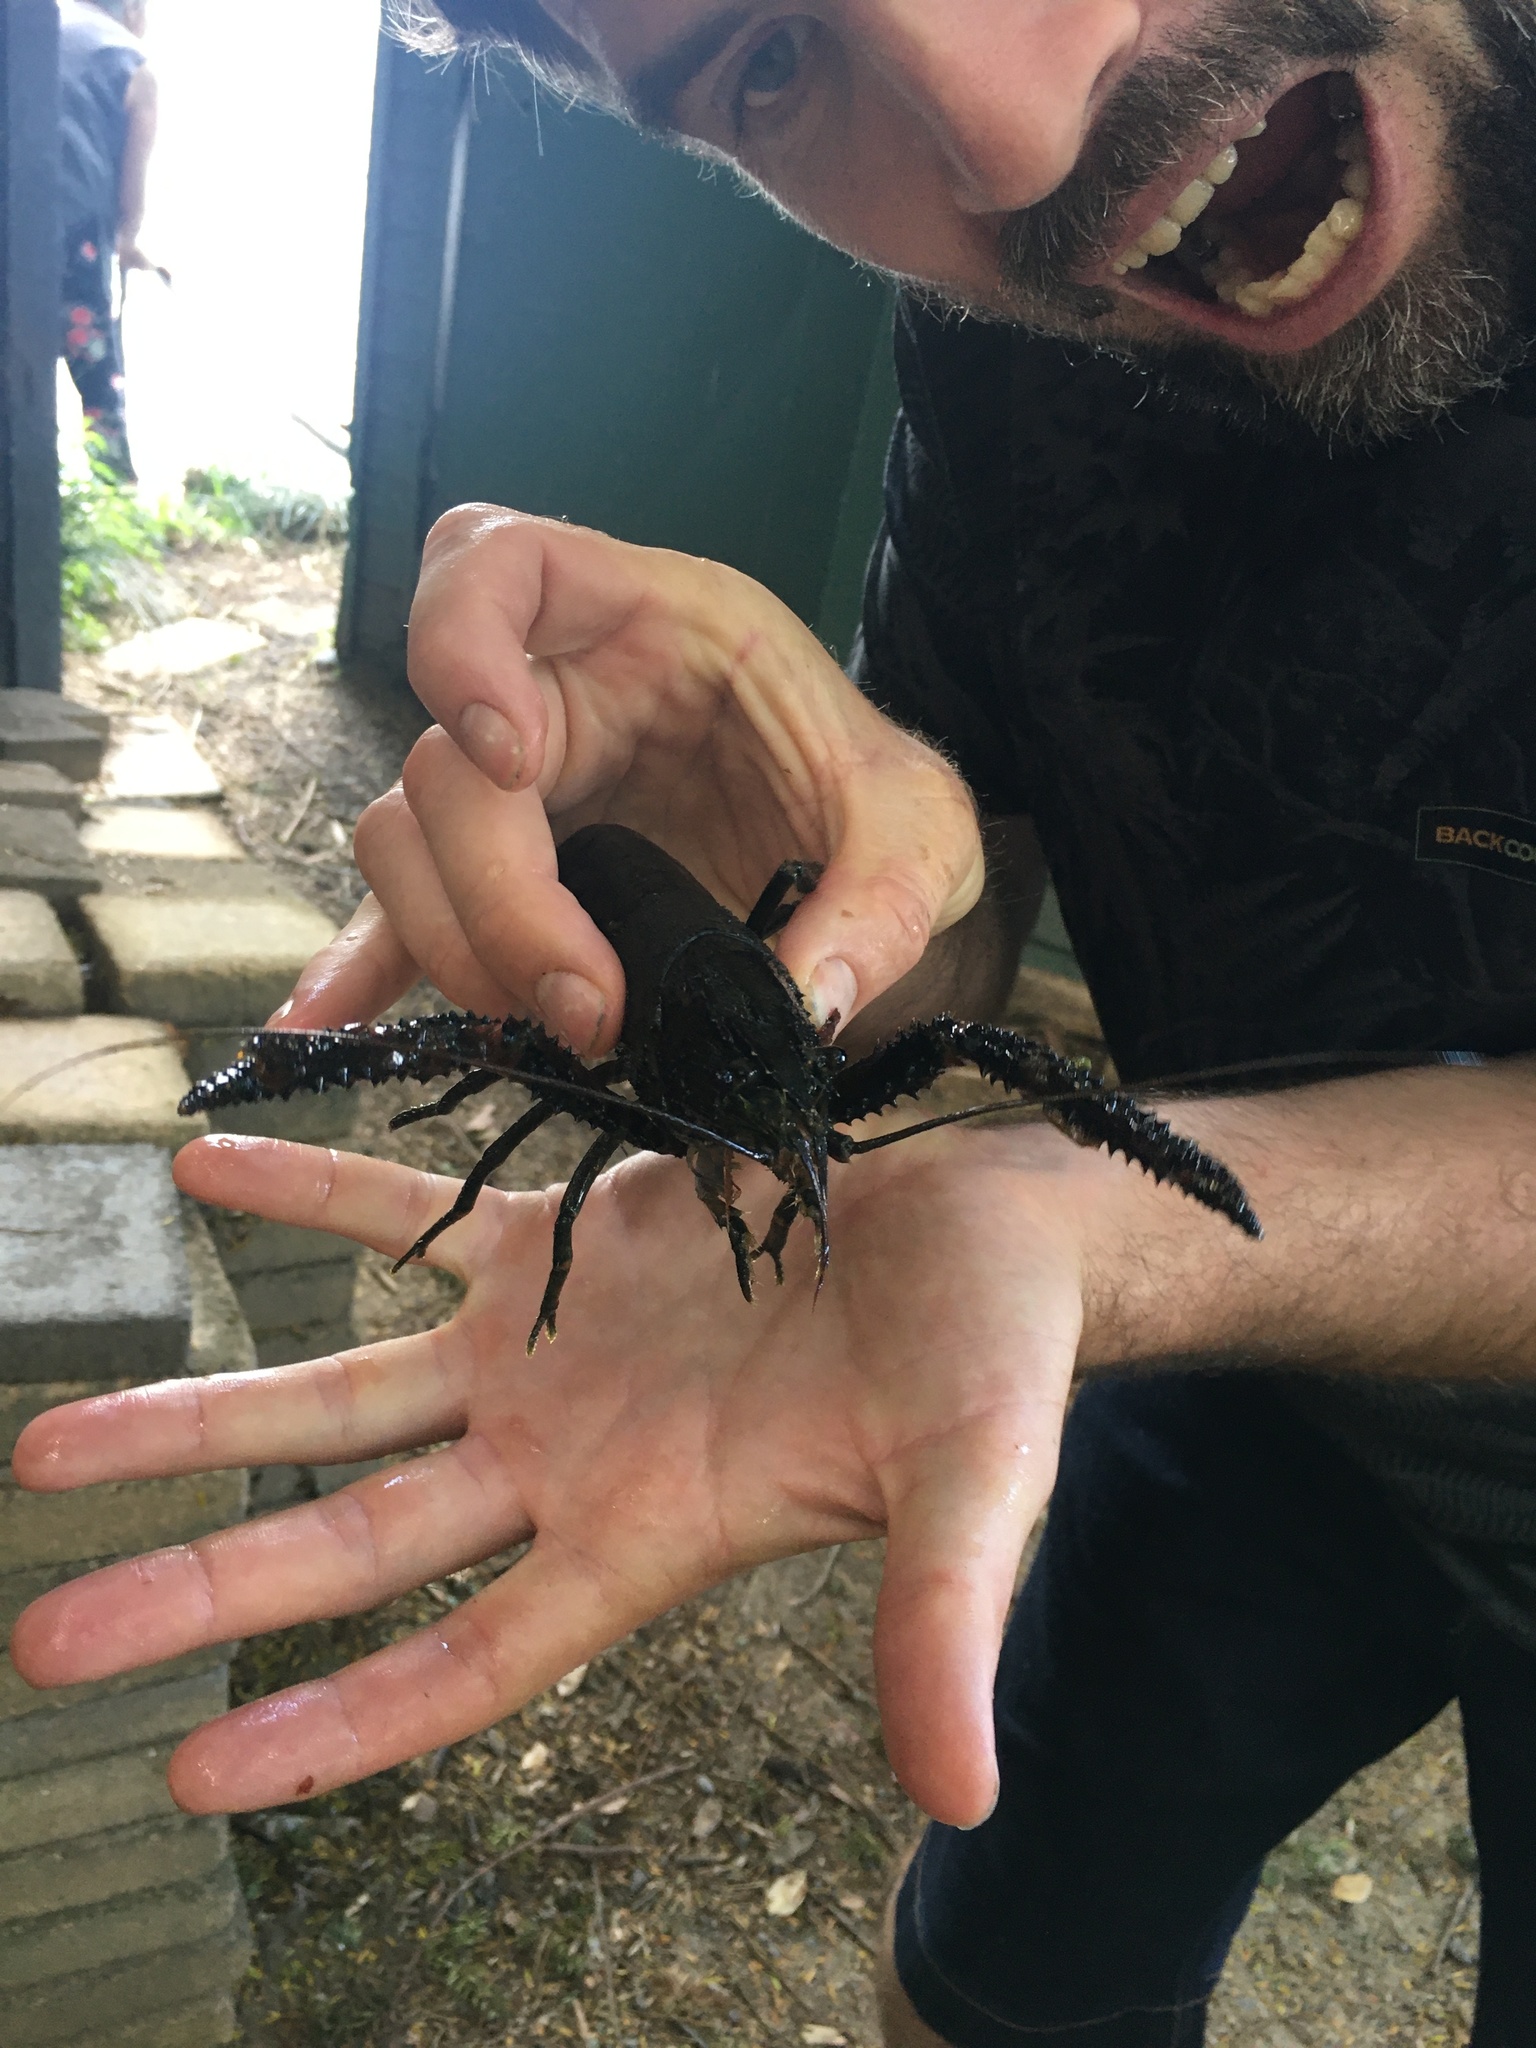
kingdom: Animalia
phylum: Arthropoda
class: Malacostraca
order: Decapoda
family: Parastacidae
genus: Paranephrops
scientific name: Paranephrops planifrons
